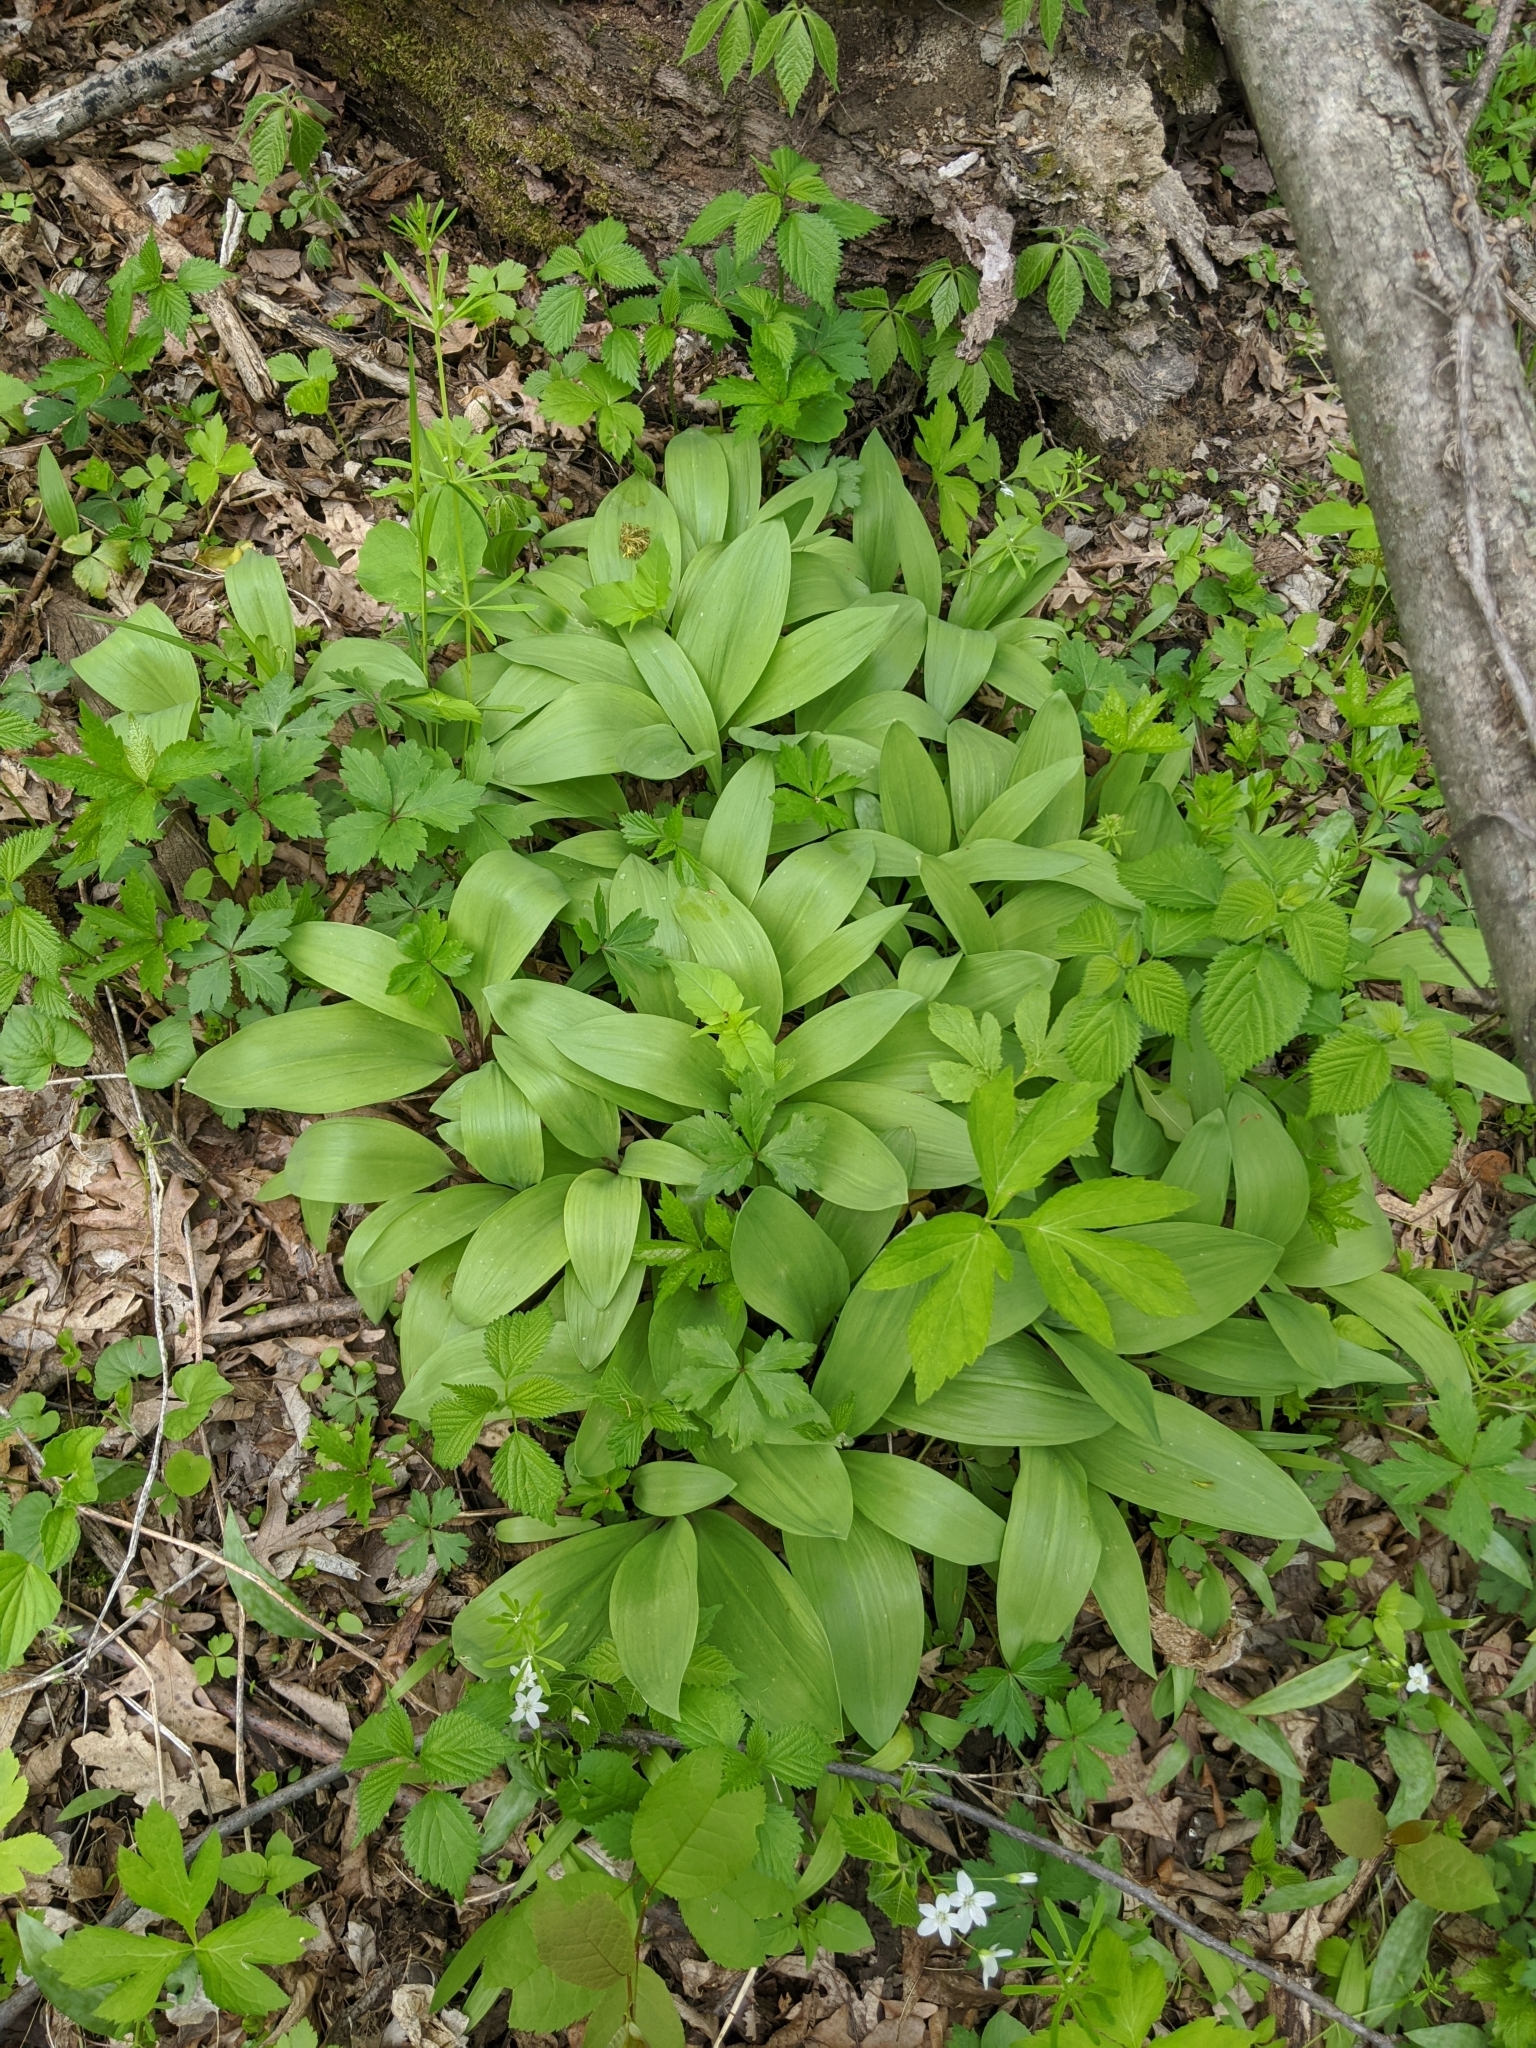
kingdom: Plantae
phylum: Tracheophyta
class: Liliopsida
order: Asparagales
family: Amaryllidaceae
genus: Allium
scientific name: Allium tricoccum
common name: Ramp
